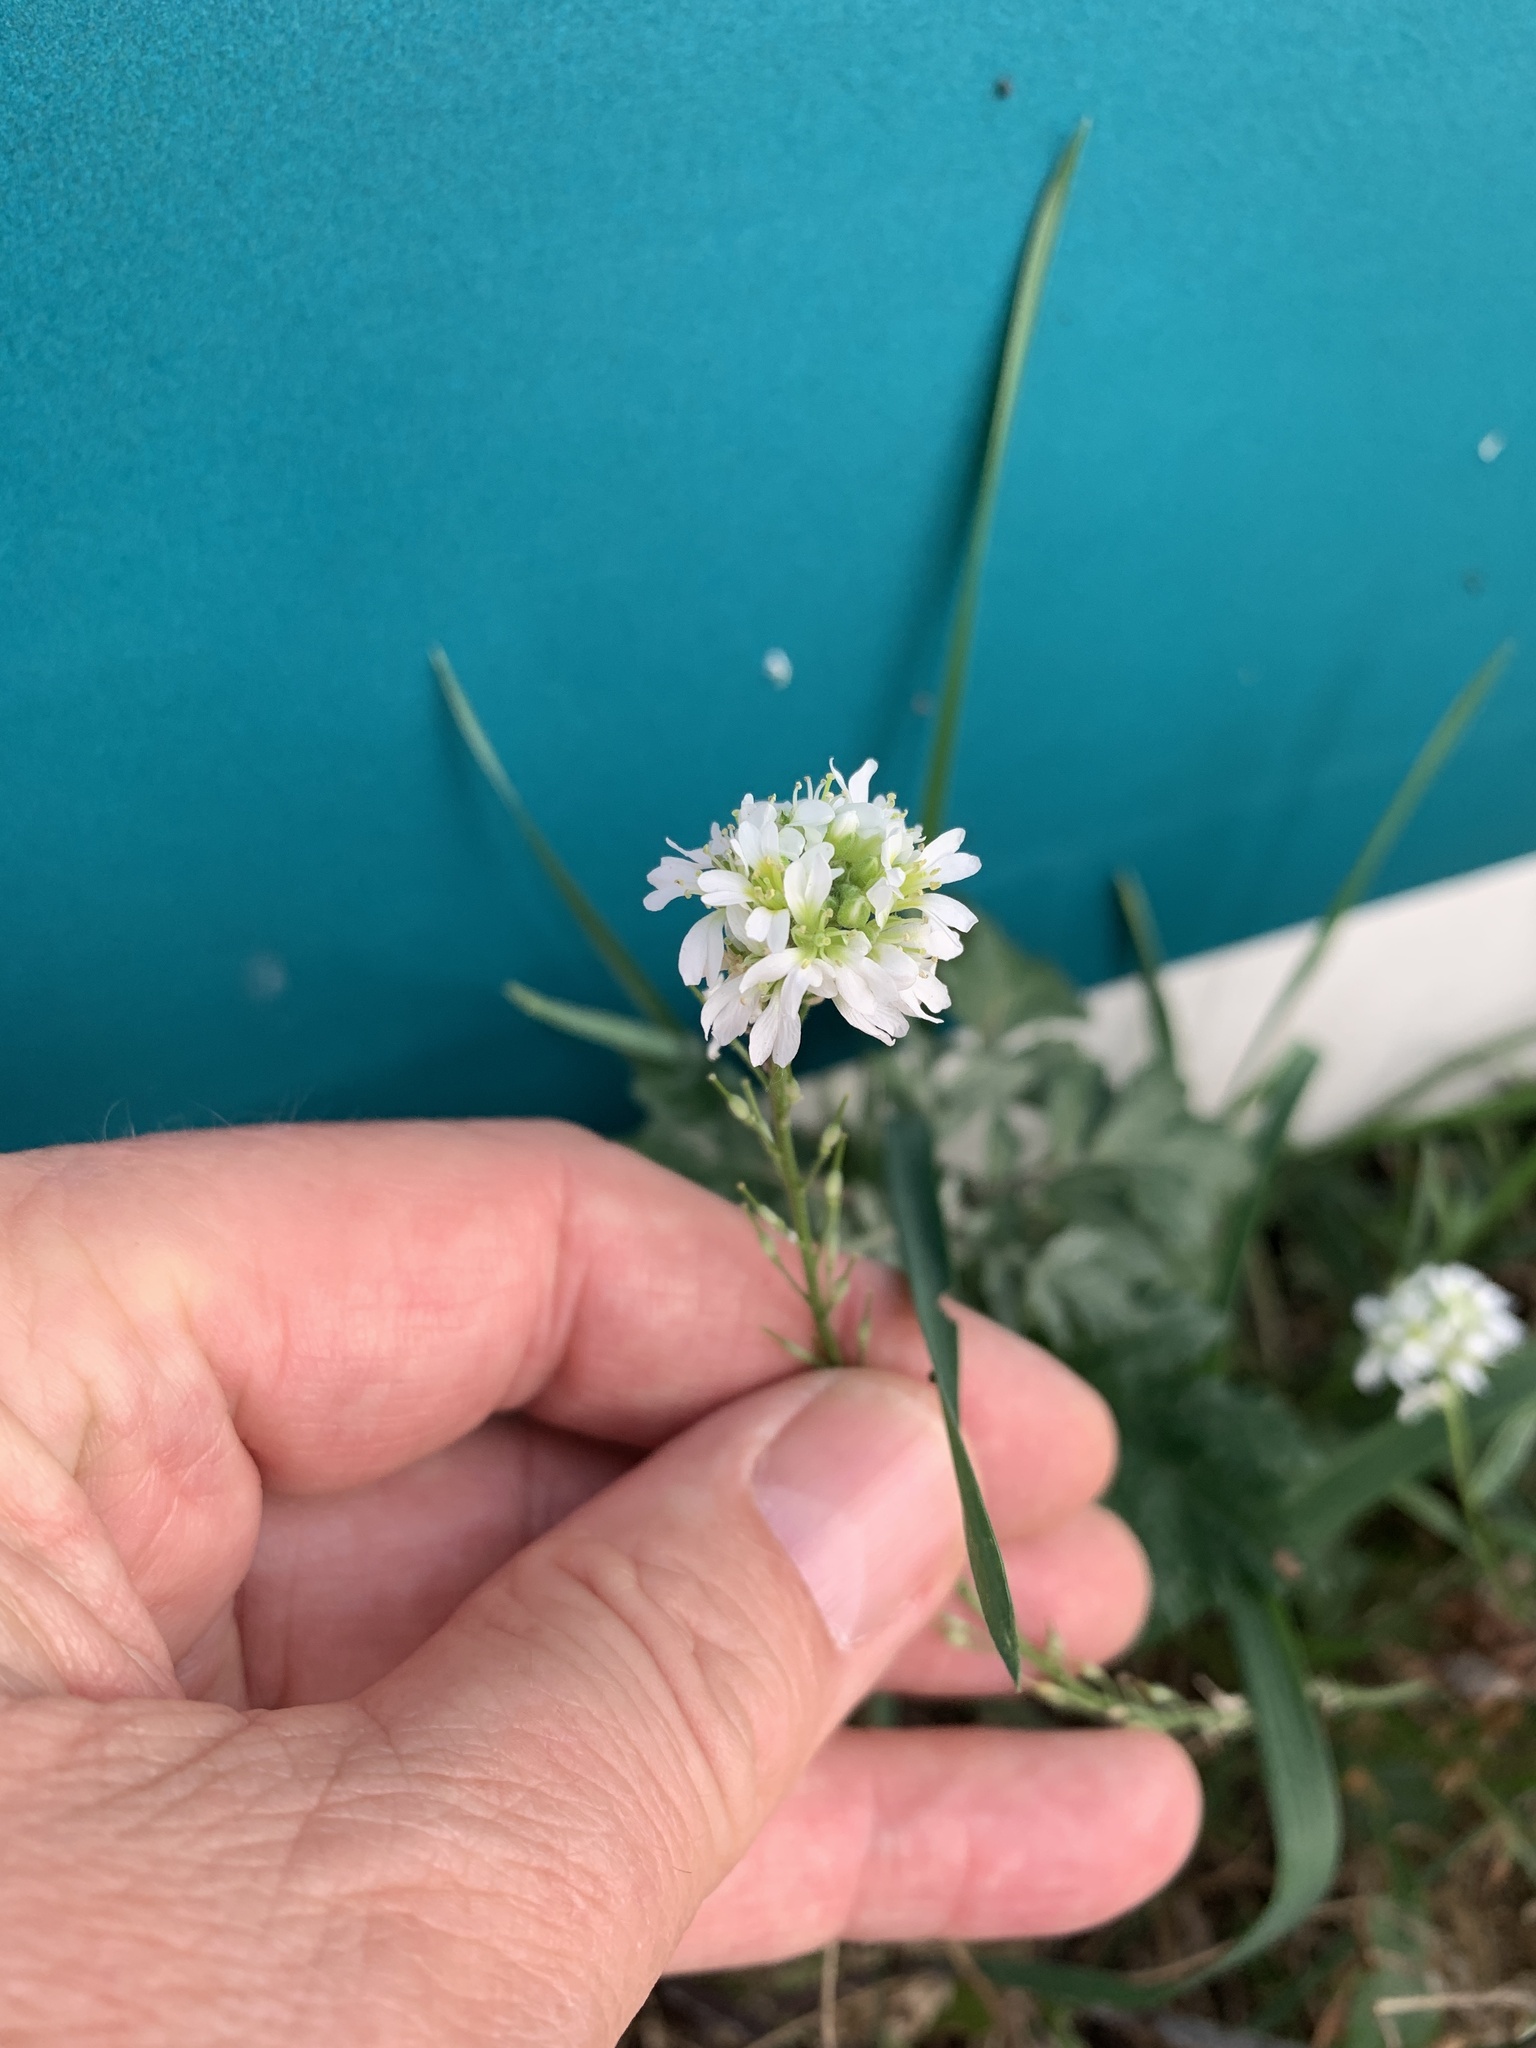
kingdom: Plantae
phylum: Tracheophyta
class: Magnoliopsida
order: Brassicales
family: Brassicaceae
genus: Berteroa
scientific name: Berteroa incana
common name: Hoary alison
